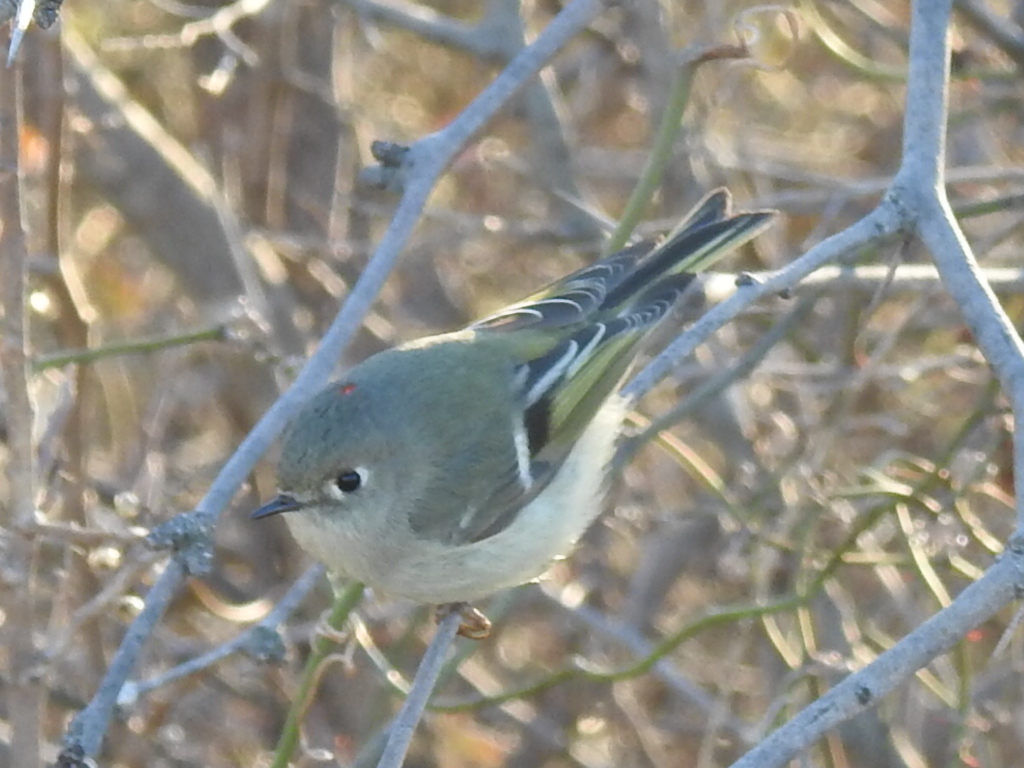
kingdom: Animalia
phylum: Chordata
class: Aves
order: Passeriformes
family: Regulidae
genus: Regulus
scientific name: Regulus calendula
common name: Ruby-crowned kinglet
